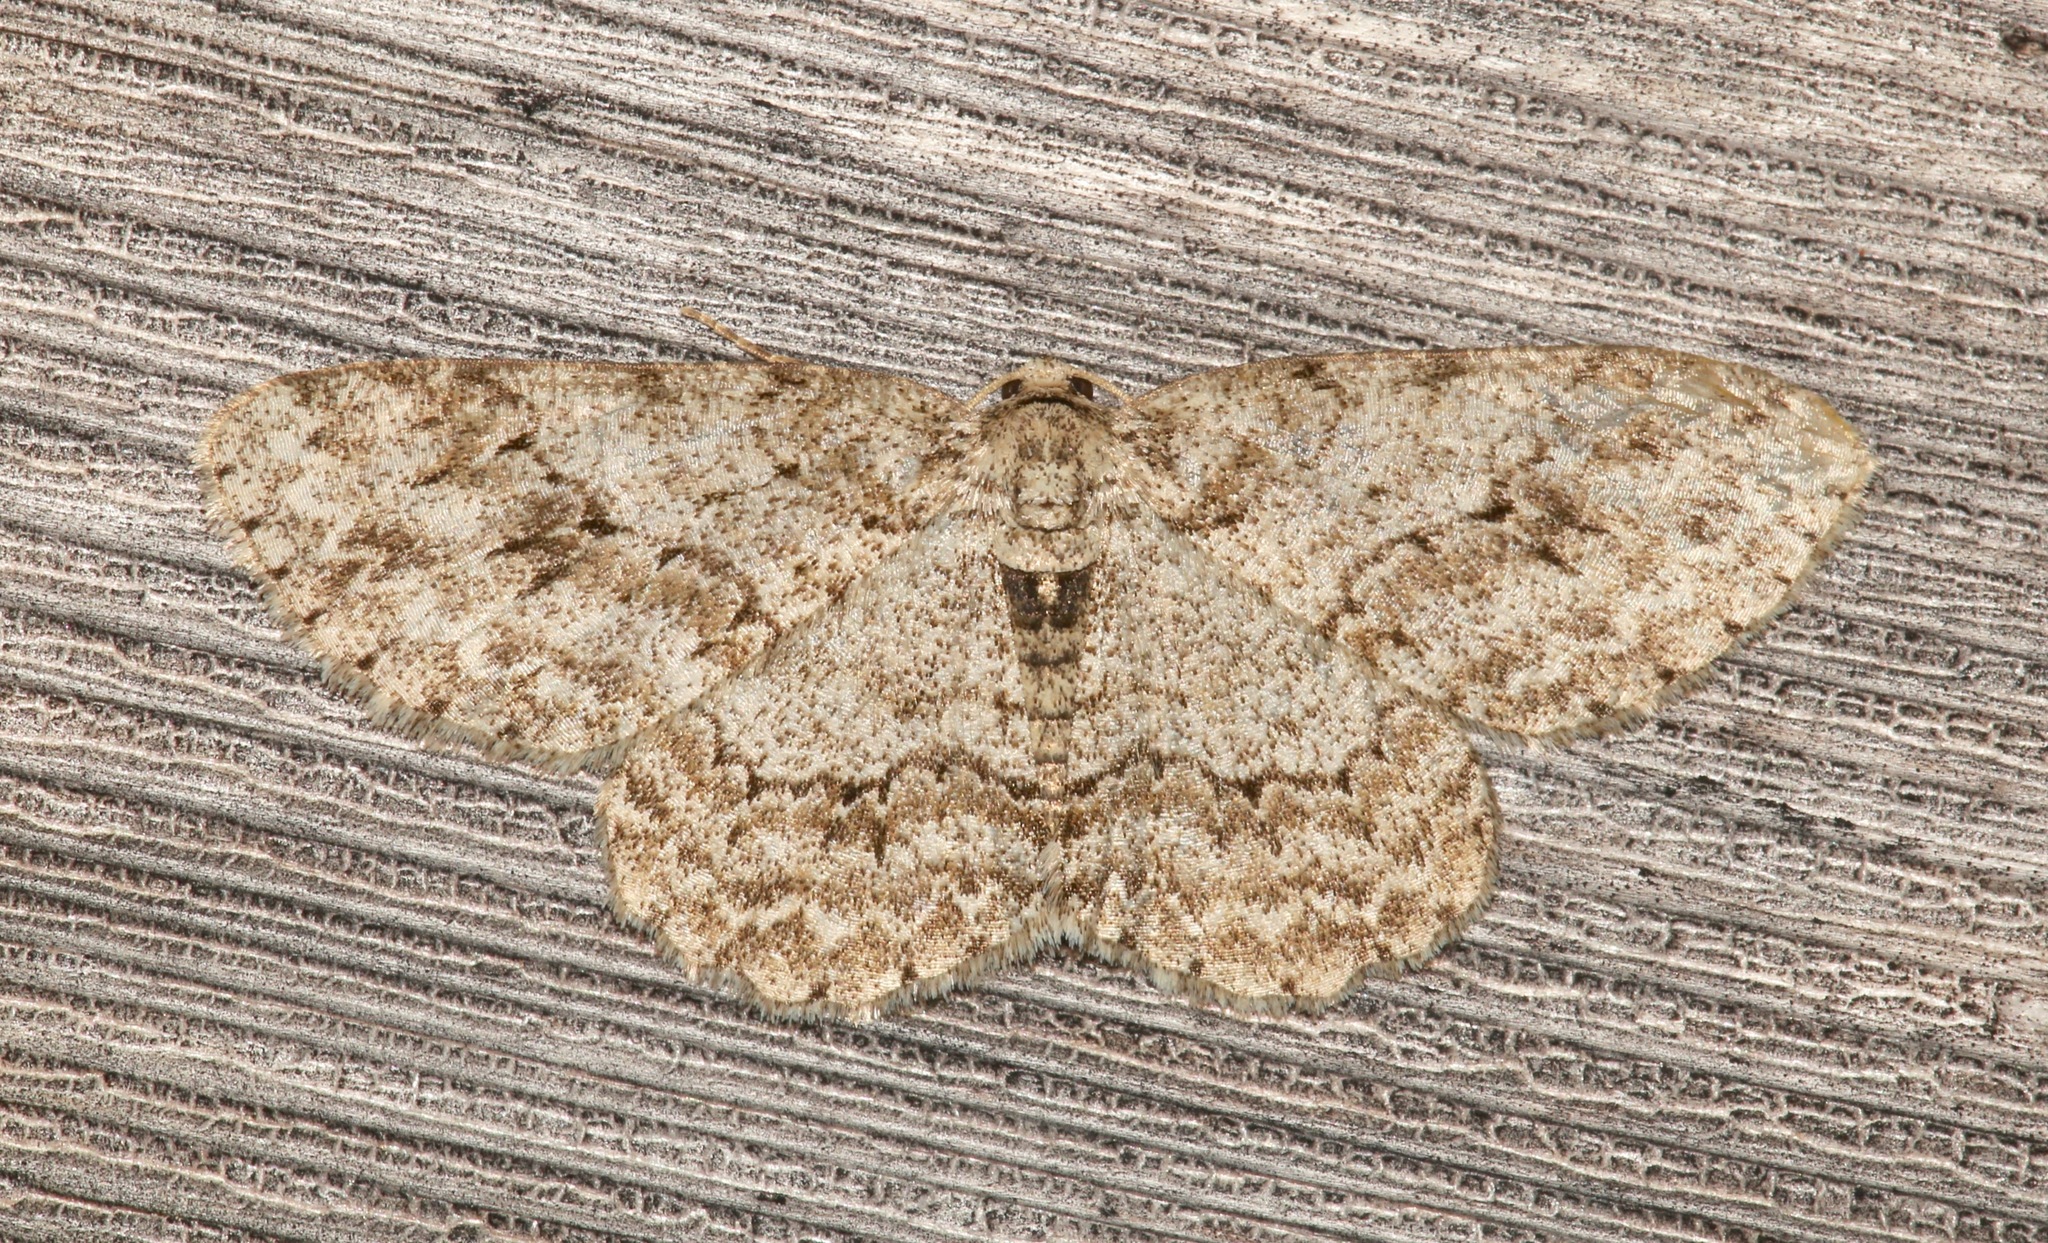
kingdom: Animalia
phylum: Arthropoda
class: Insecta
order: Lepidoptera
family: Geometridae
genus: Ectropis
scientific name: Ectropis crepuscularia
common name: Engrailed
